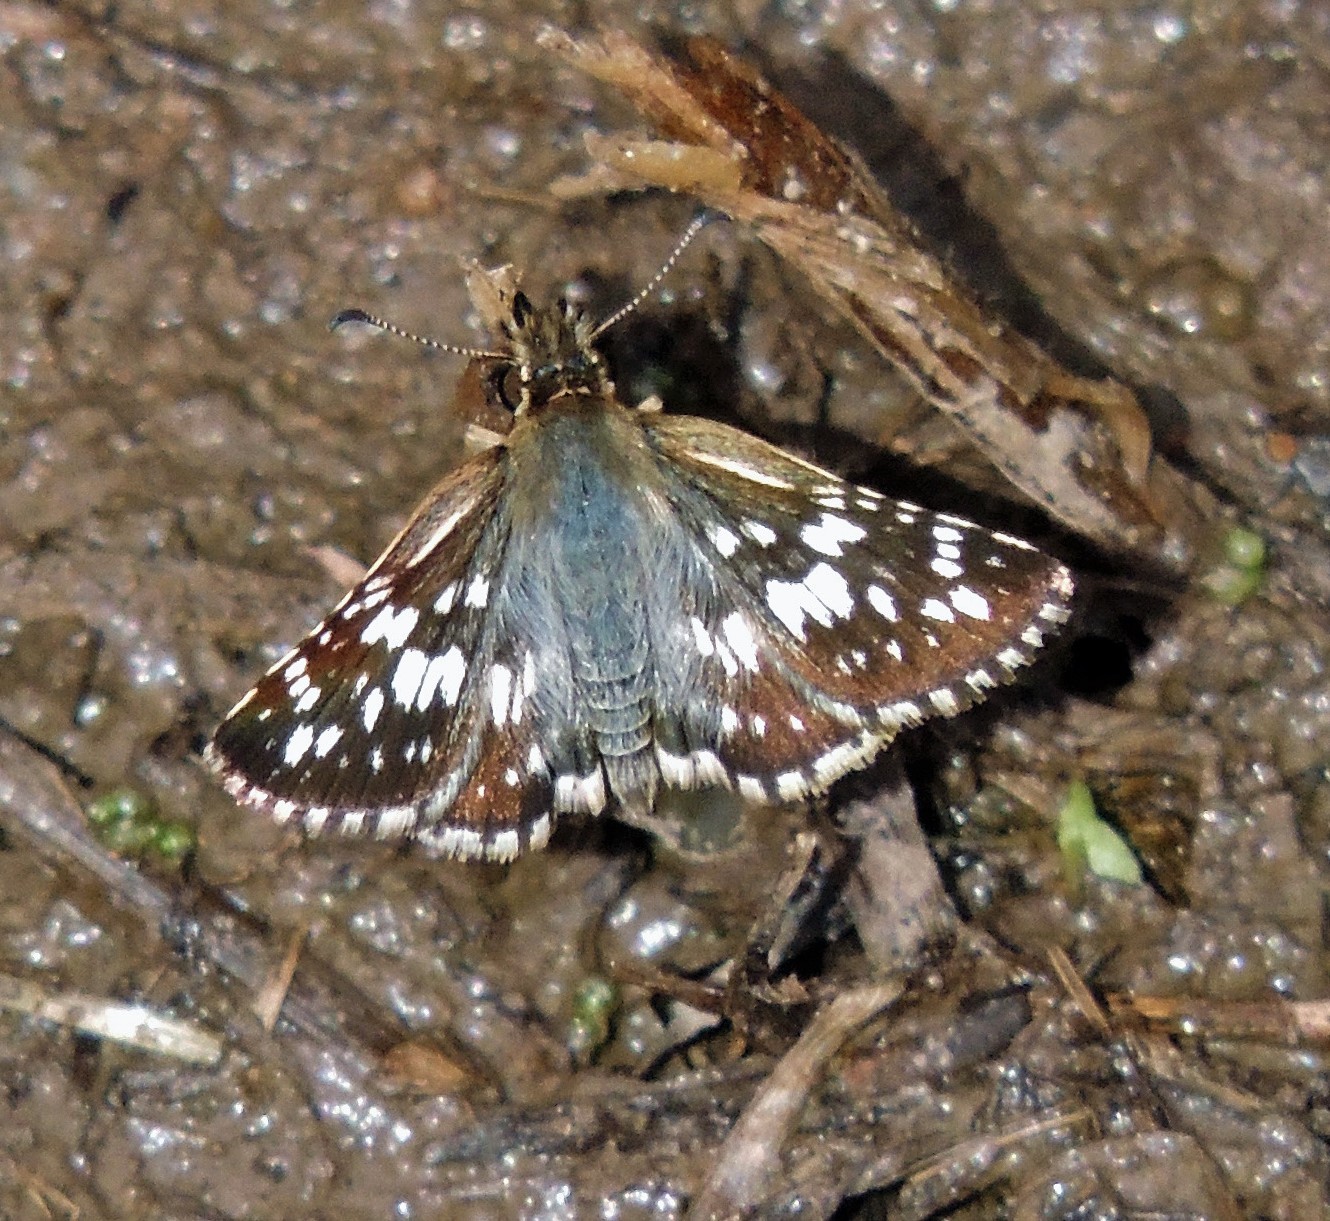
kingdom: Animalia
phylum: Arthropoda
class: Insecta
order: Lepidoptera
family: Hesperiidae
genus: Burnsius
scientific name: Burnsius orcynoides
